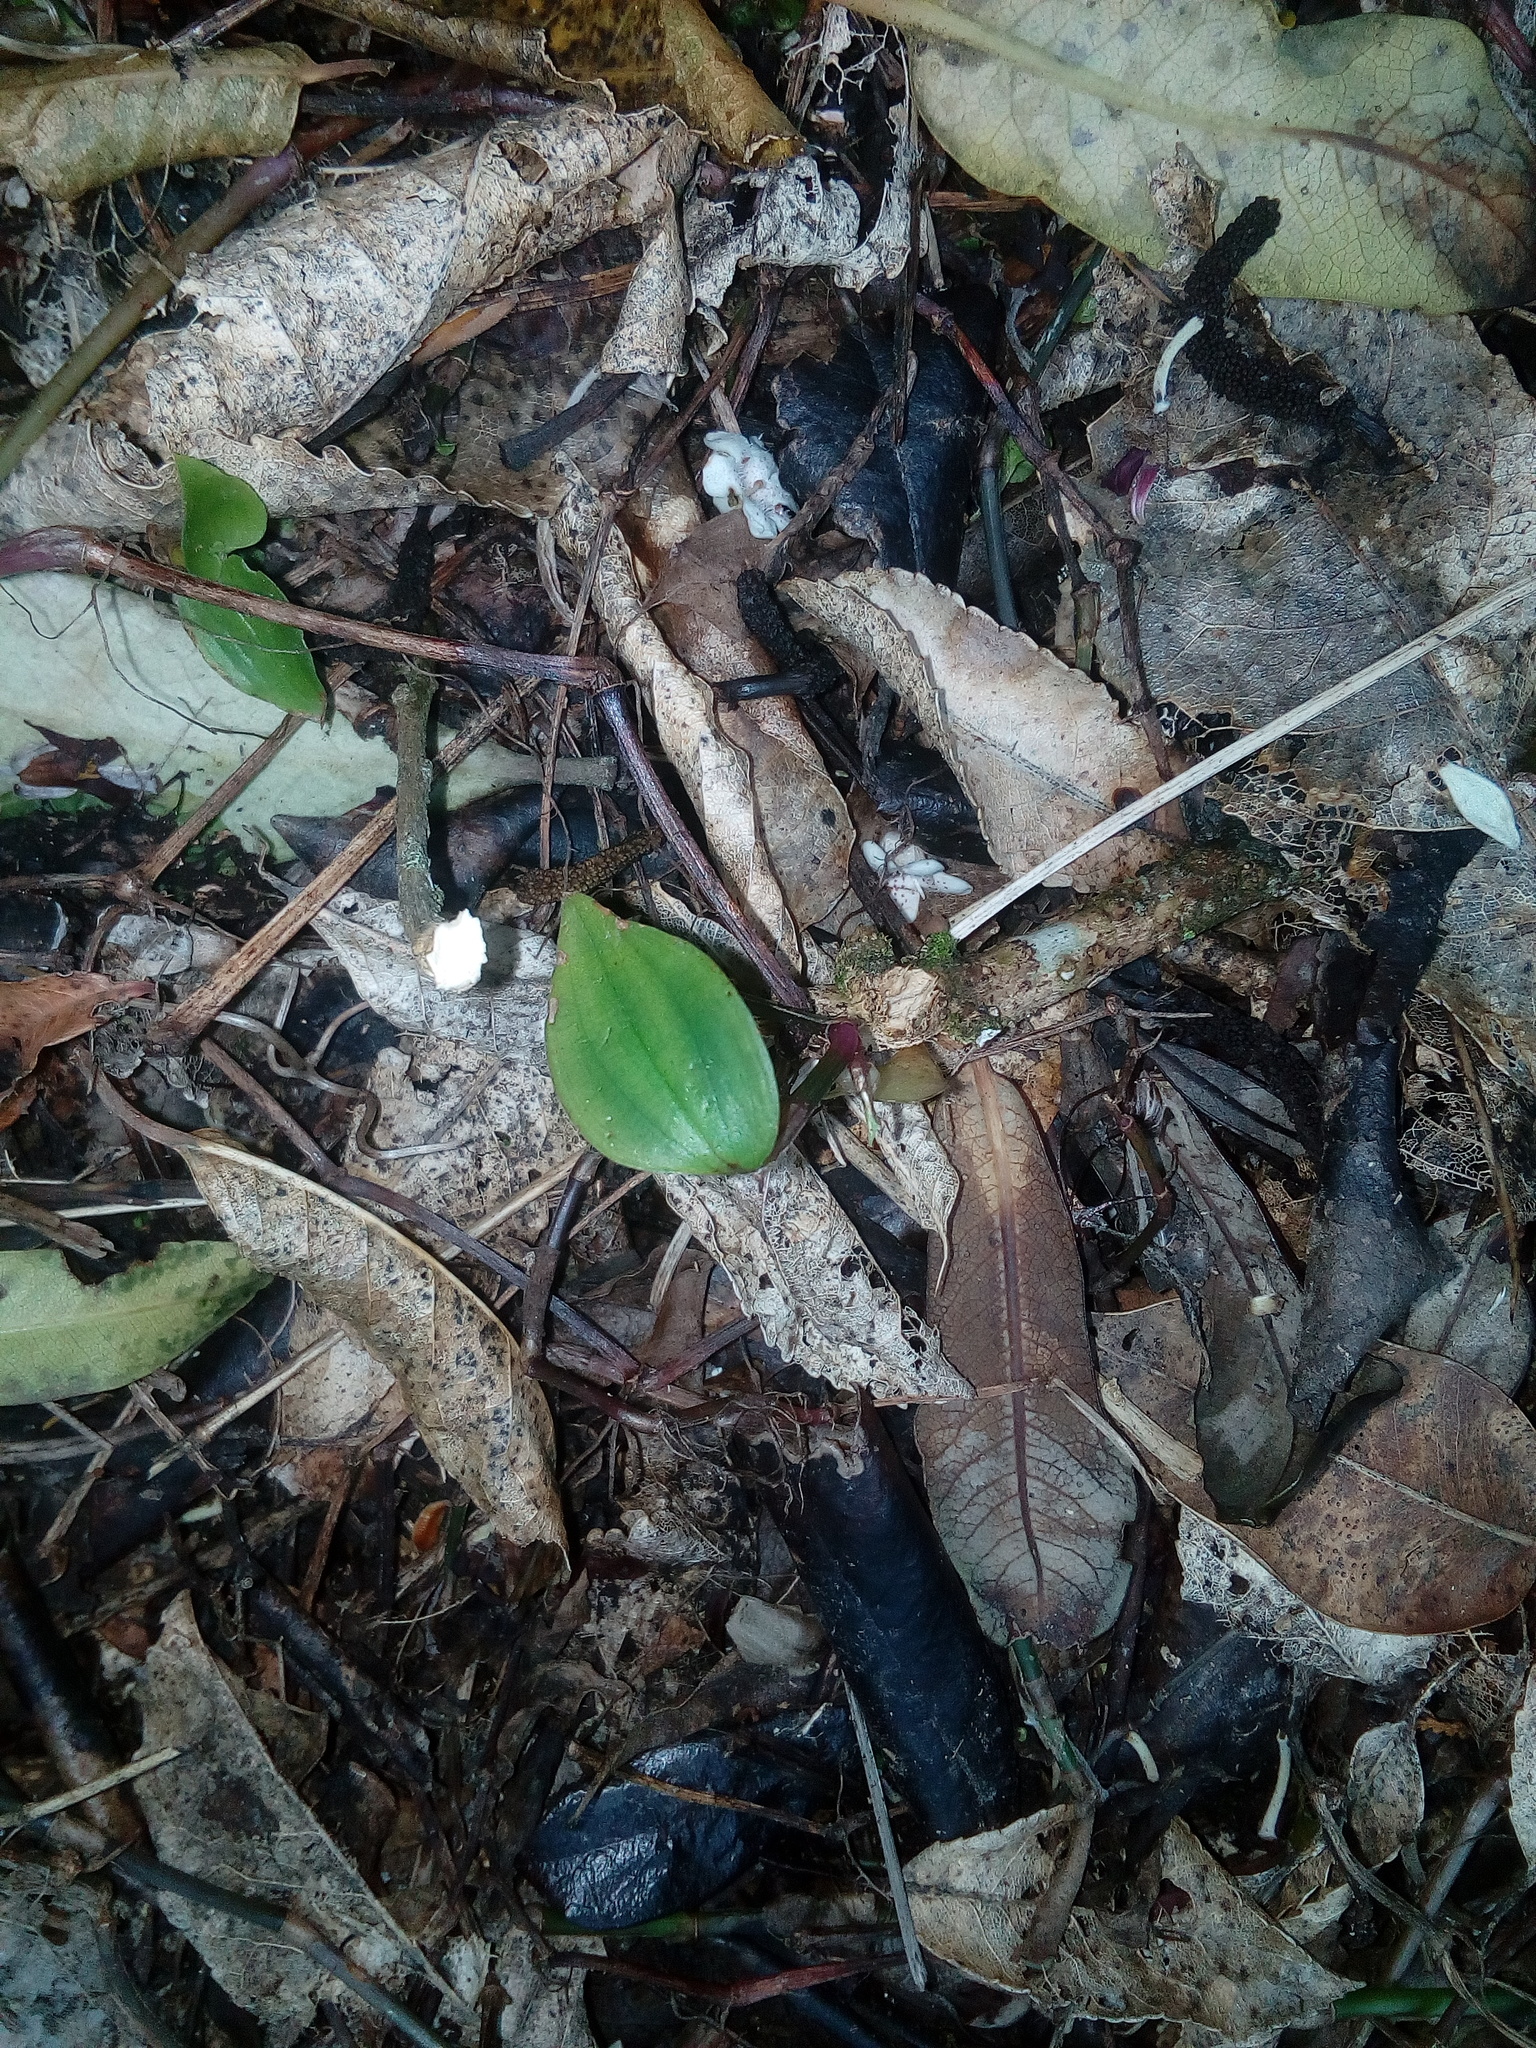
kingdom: Plantae
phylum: Tracheophyta
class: Liliopsida
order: Commelinales
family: Commelinaceae
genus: Tradescantia
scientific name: Tradescantia fluminensis
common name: Wandering-jew
